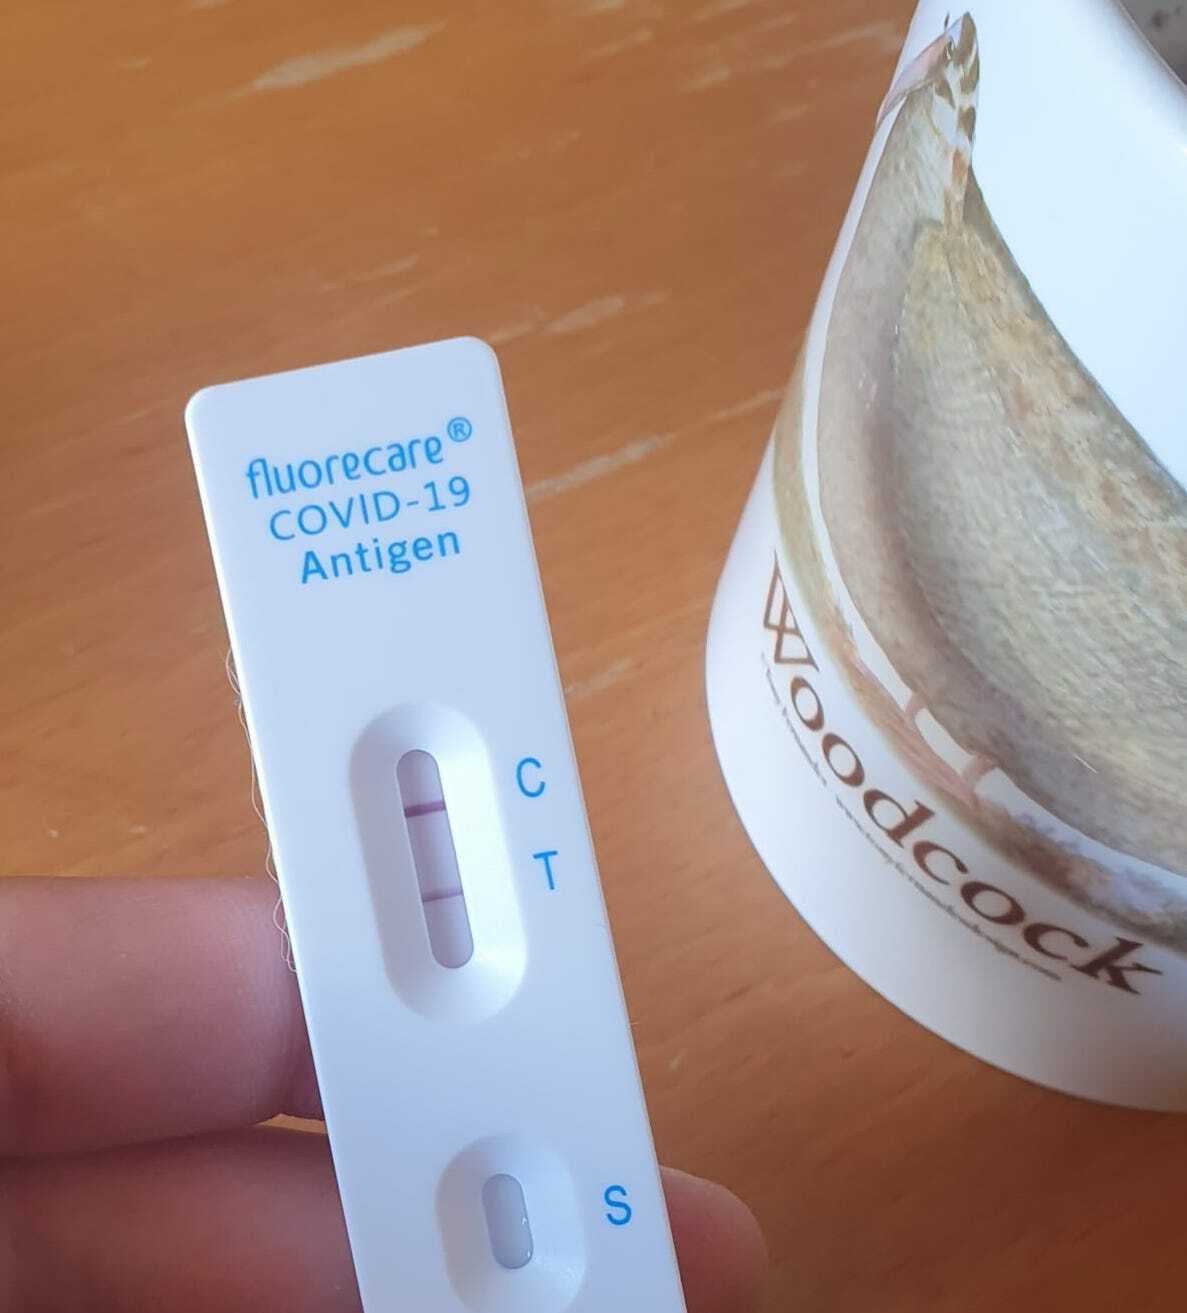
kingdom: Viruses
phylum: Pisuviricota
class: Pisoniviricetes
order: Nidovirales
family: Coronaviridae
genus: Betacoronavirus
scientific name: Betacoronavirus
